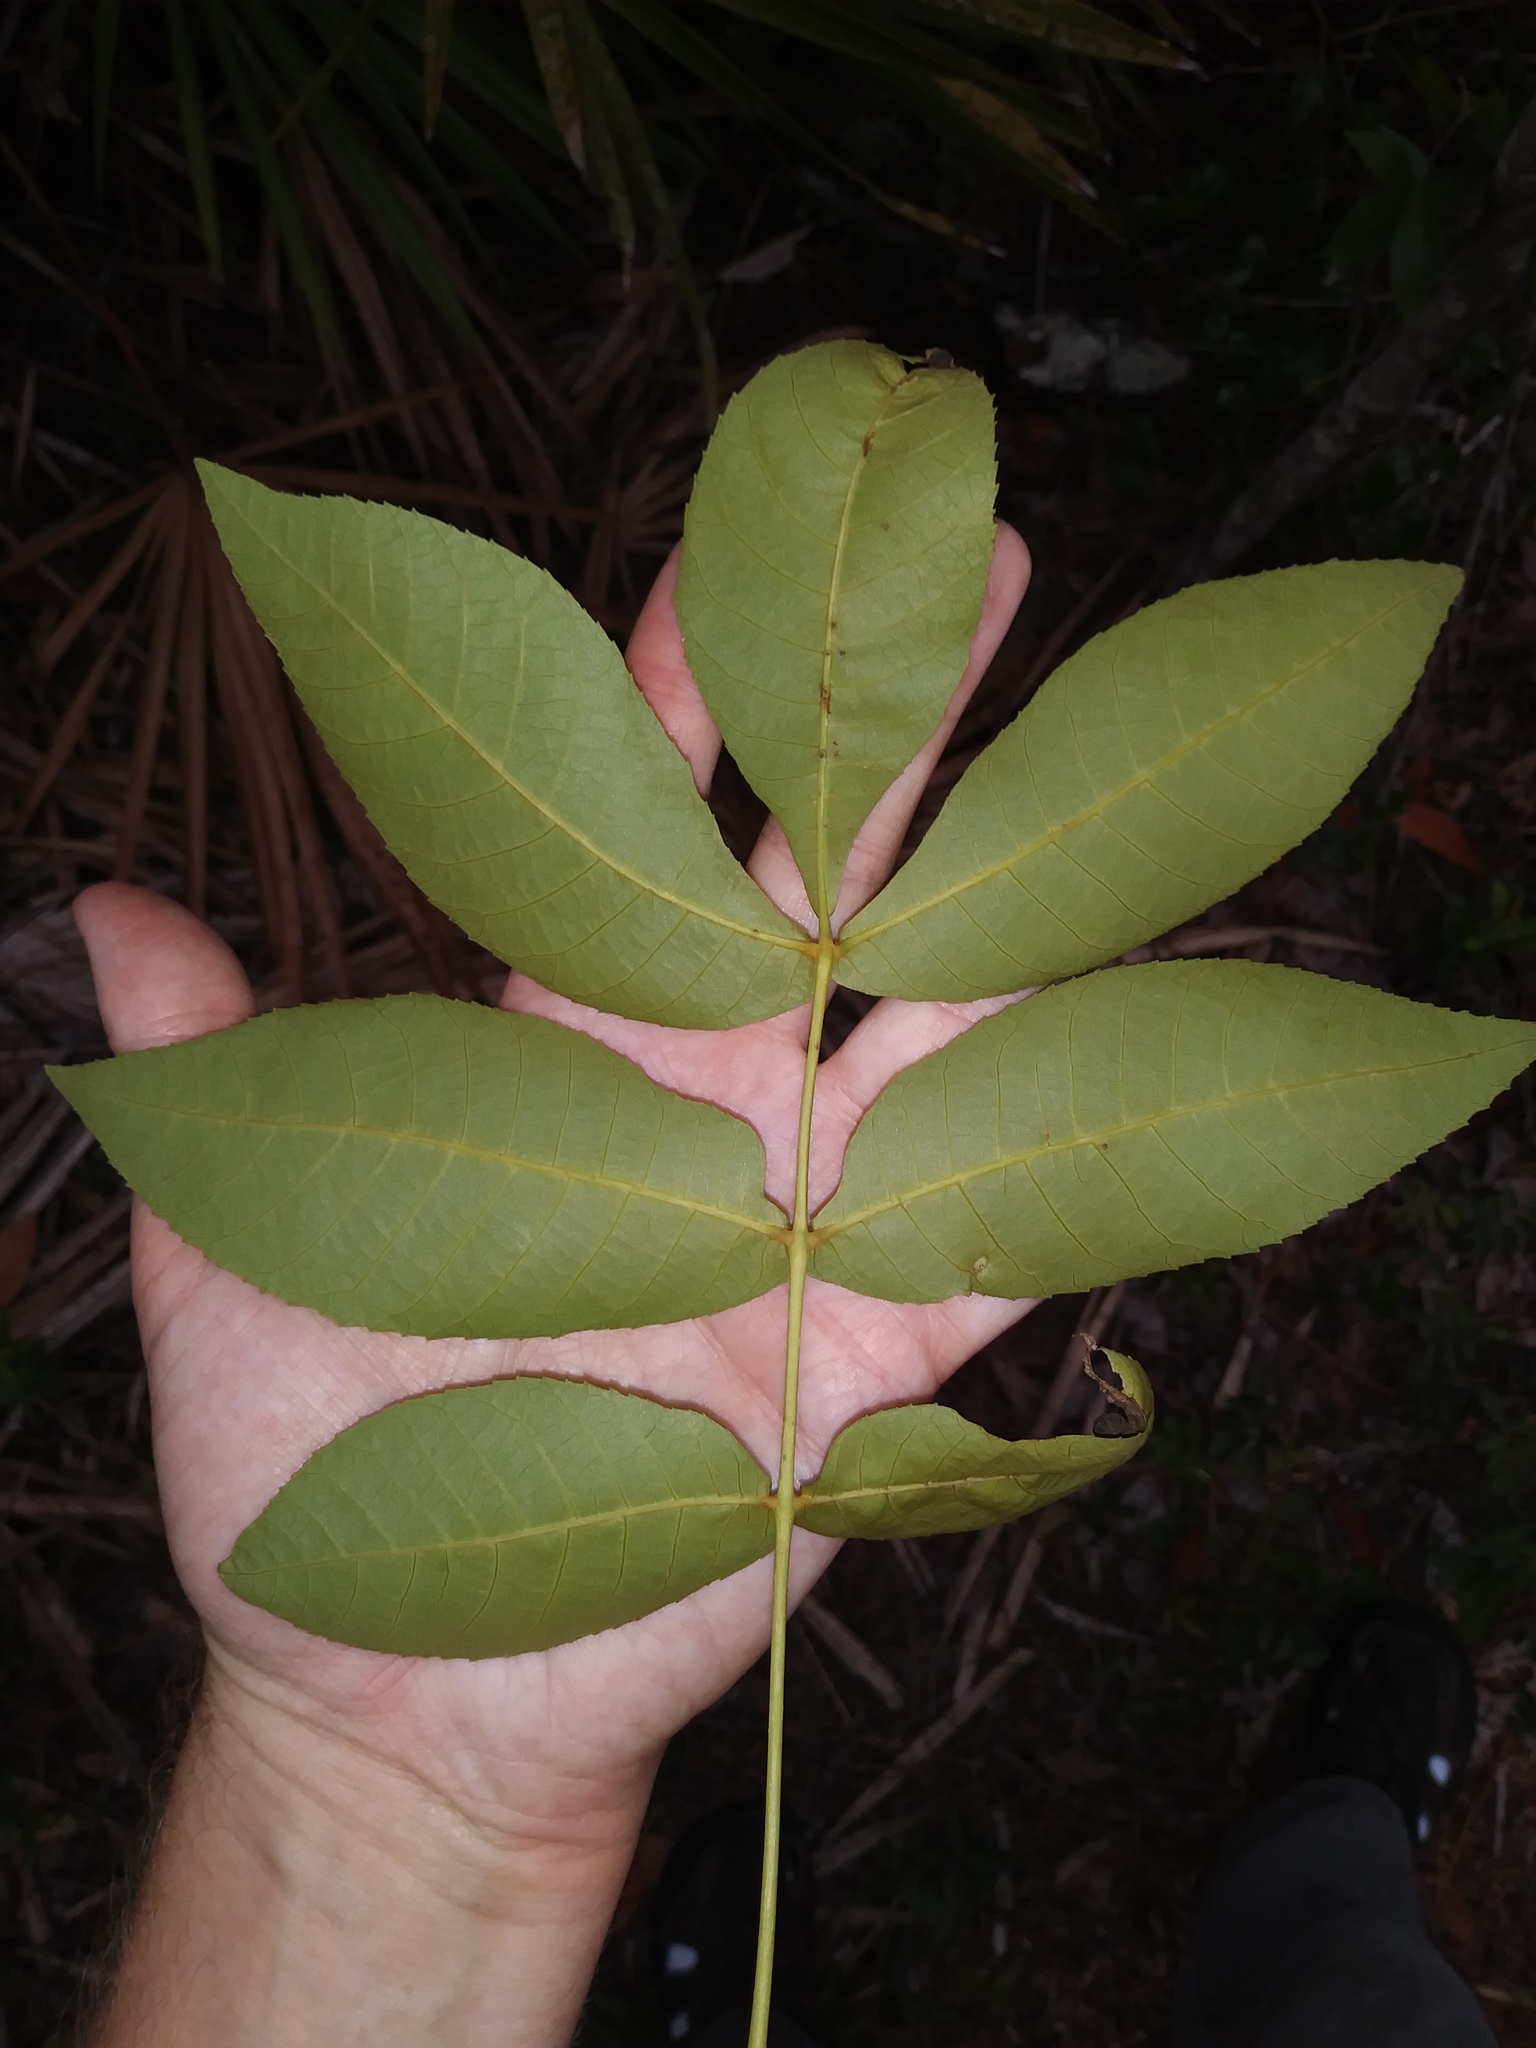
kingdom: Plantae
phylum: Tracheophyta
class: Magnoliopsida
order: Fagales
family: Juglandaceae
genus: Carya
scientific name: Carya glabra
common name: Pignut hickory
